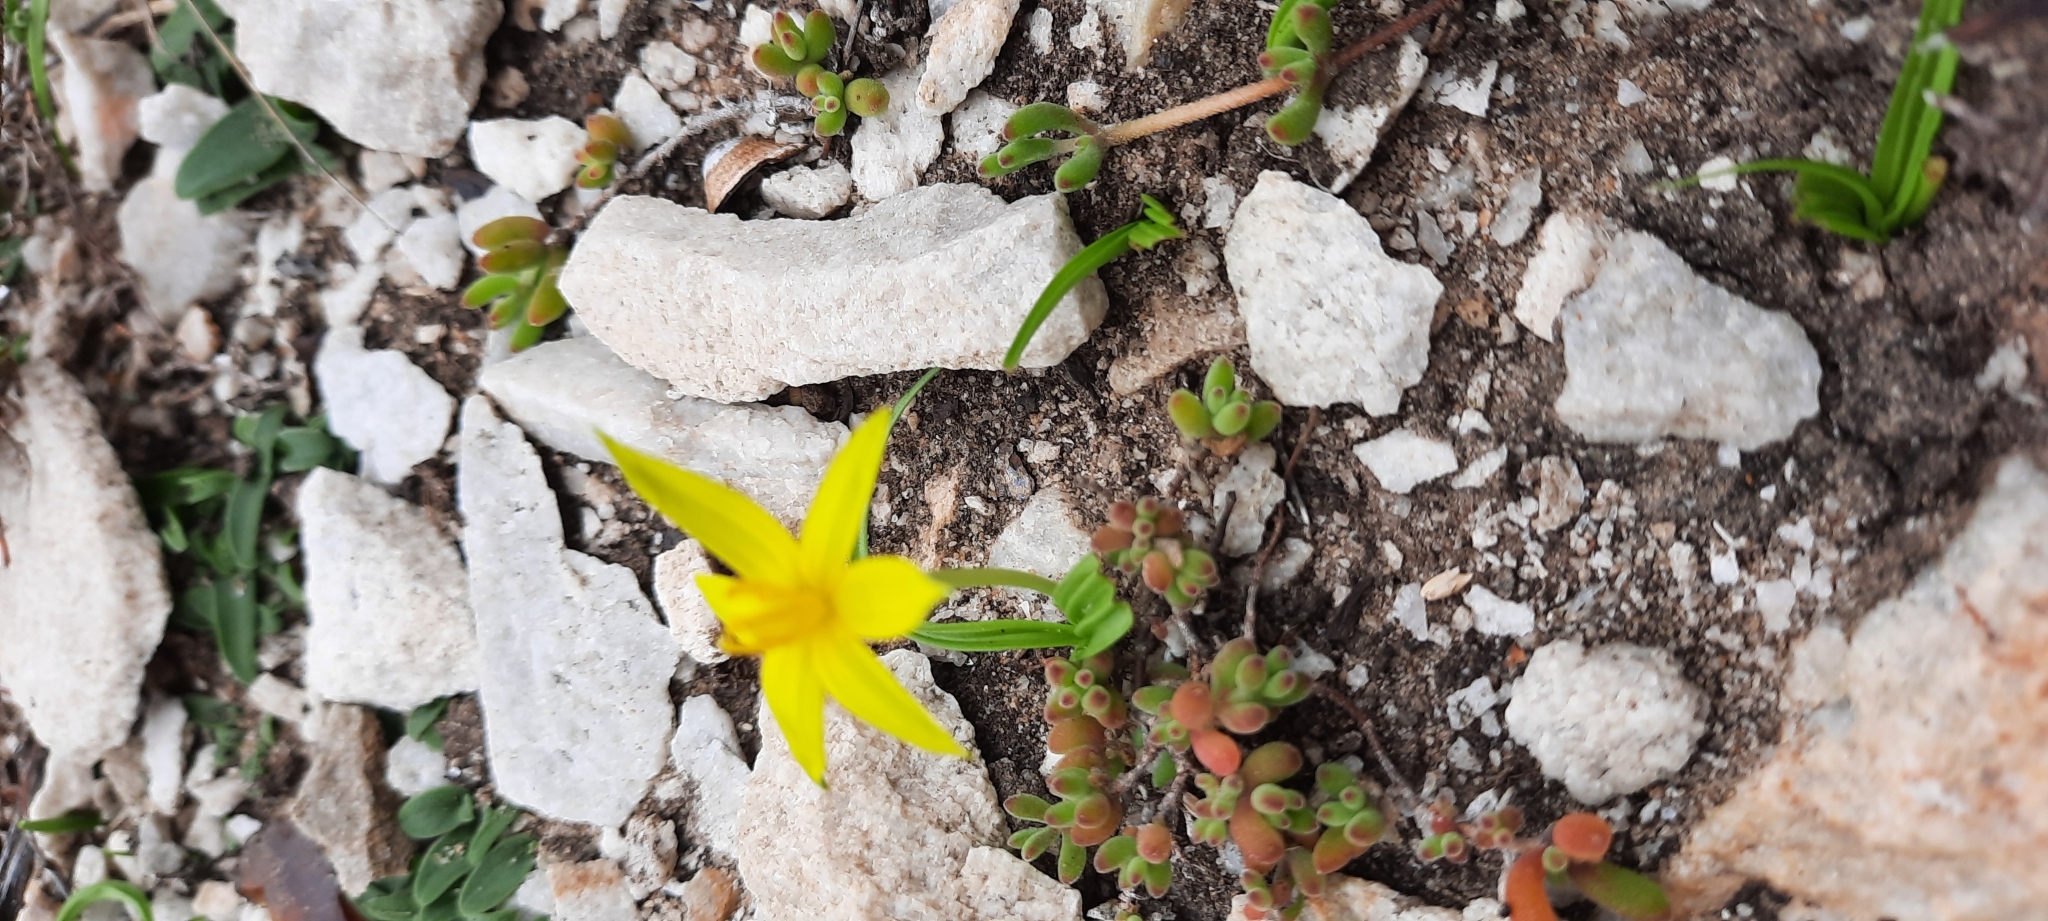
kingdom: Plantae
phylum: Tracheophyta
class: Liliopsida
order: Asparagales
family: Hypoxidaceae
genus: Empodium
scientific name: Empodium gloriosum
